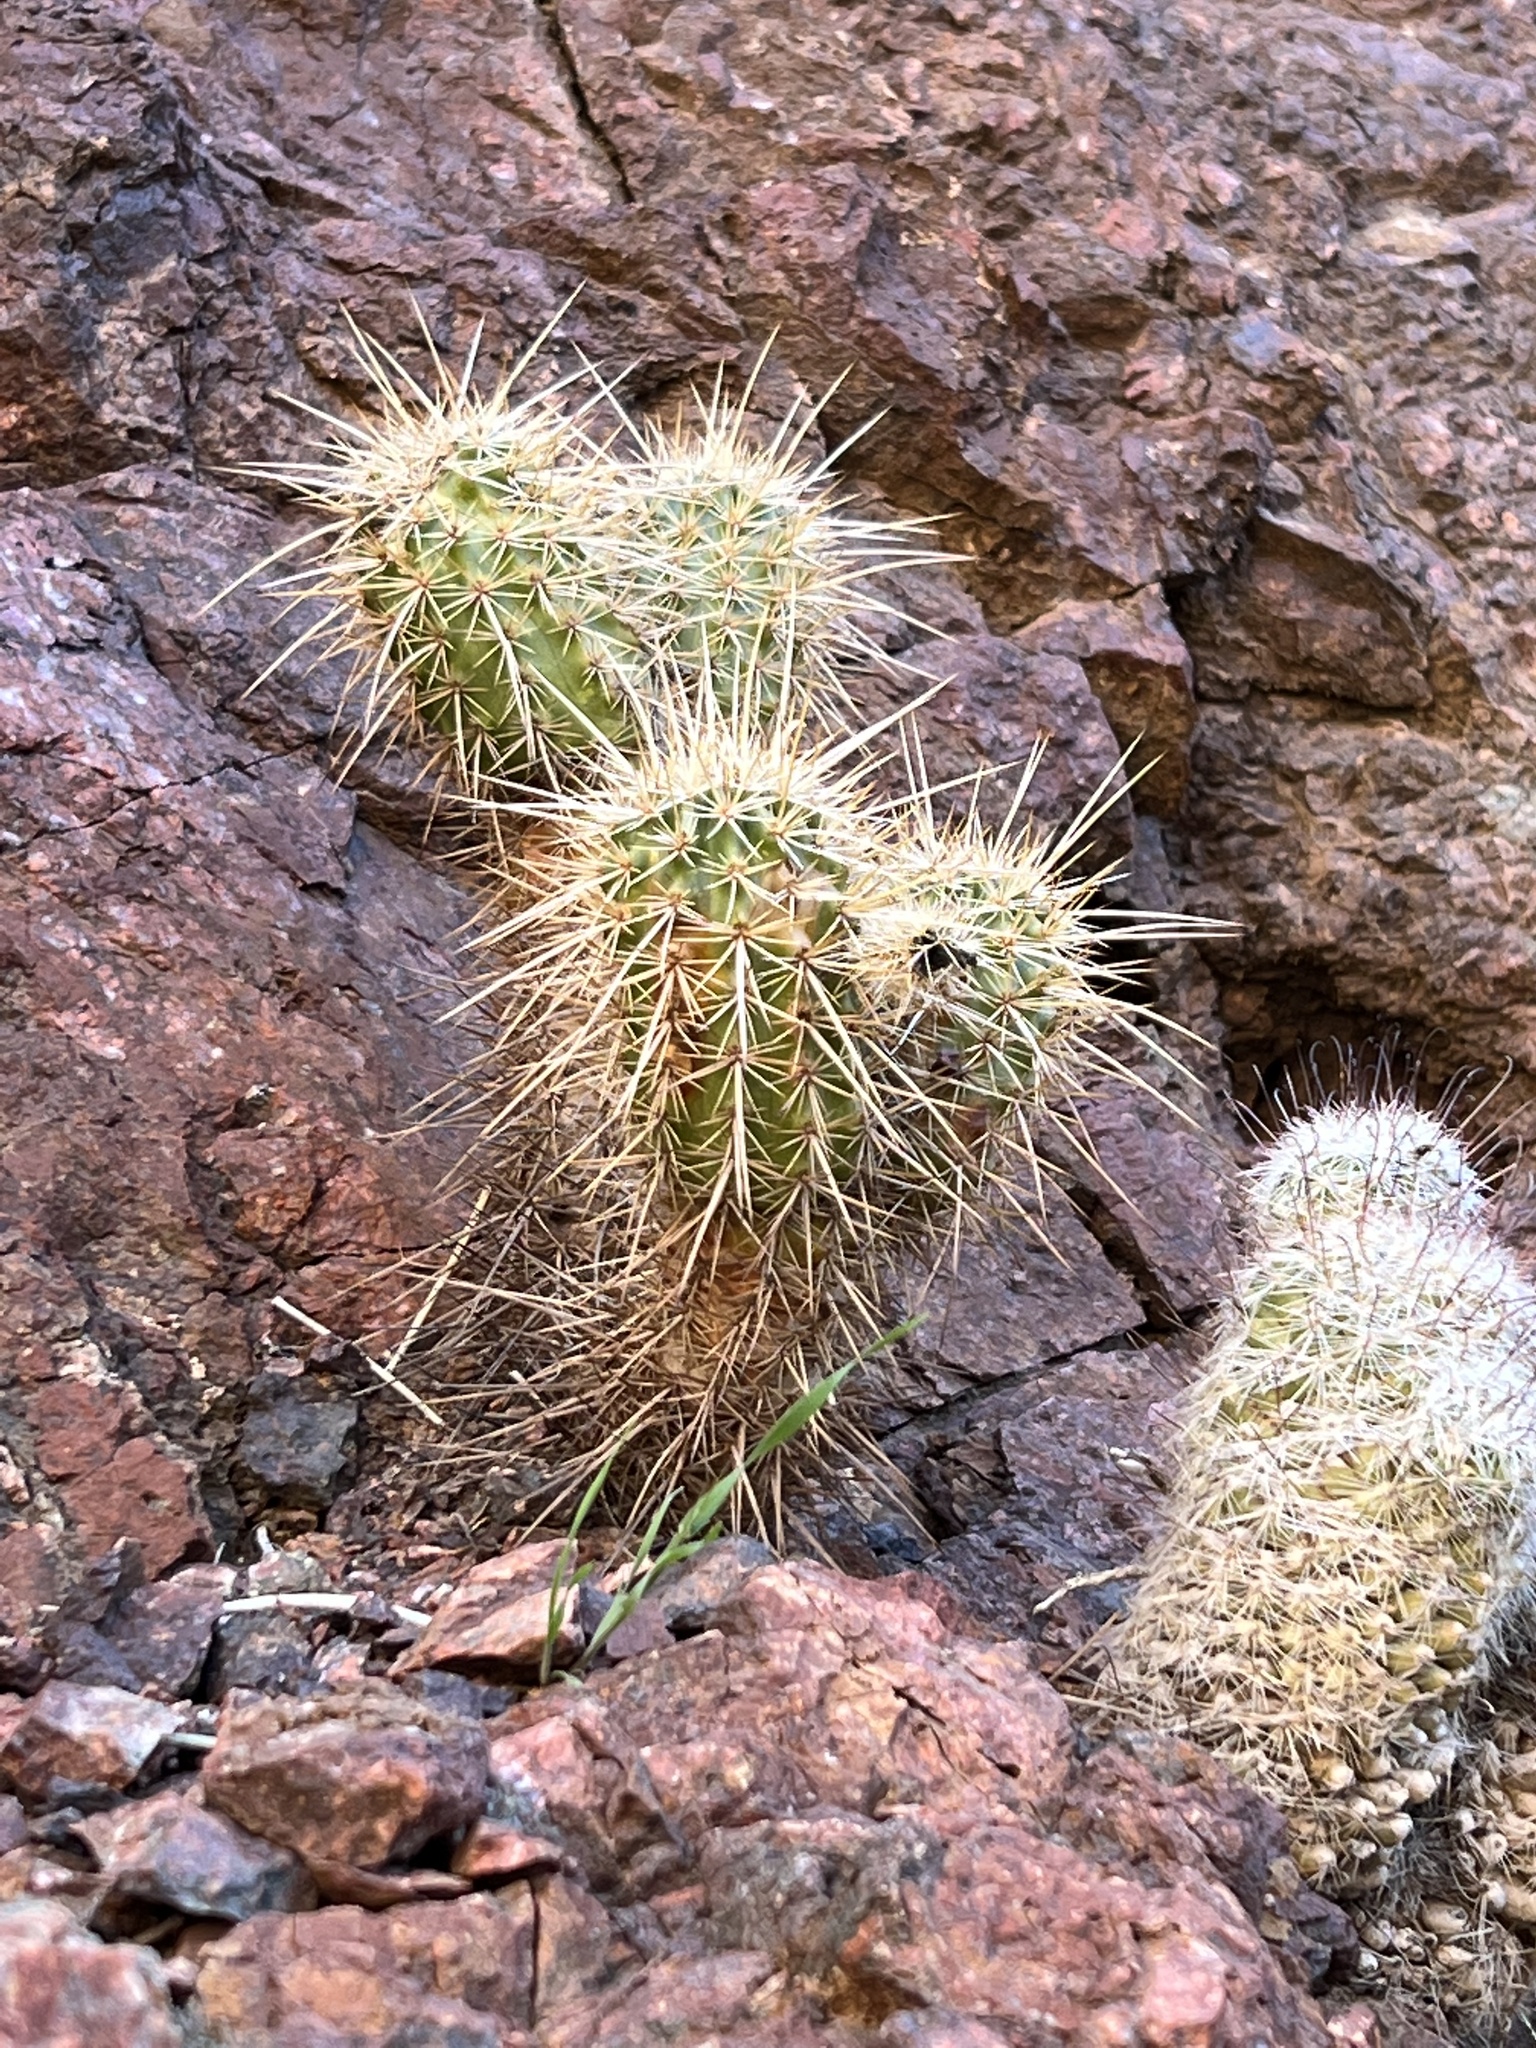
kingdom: Plantae
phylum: Tracheophyta
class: Magnoliopsida
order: Caryophyllales
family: Cactaceae
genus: Echinocereus
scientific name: Echinocereus engelmannii
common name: Engelmann's hedgehog cactus
